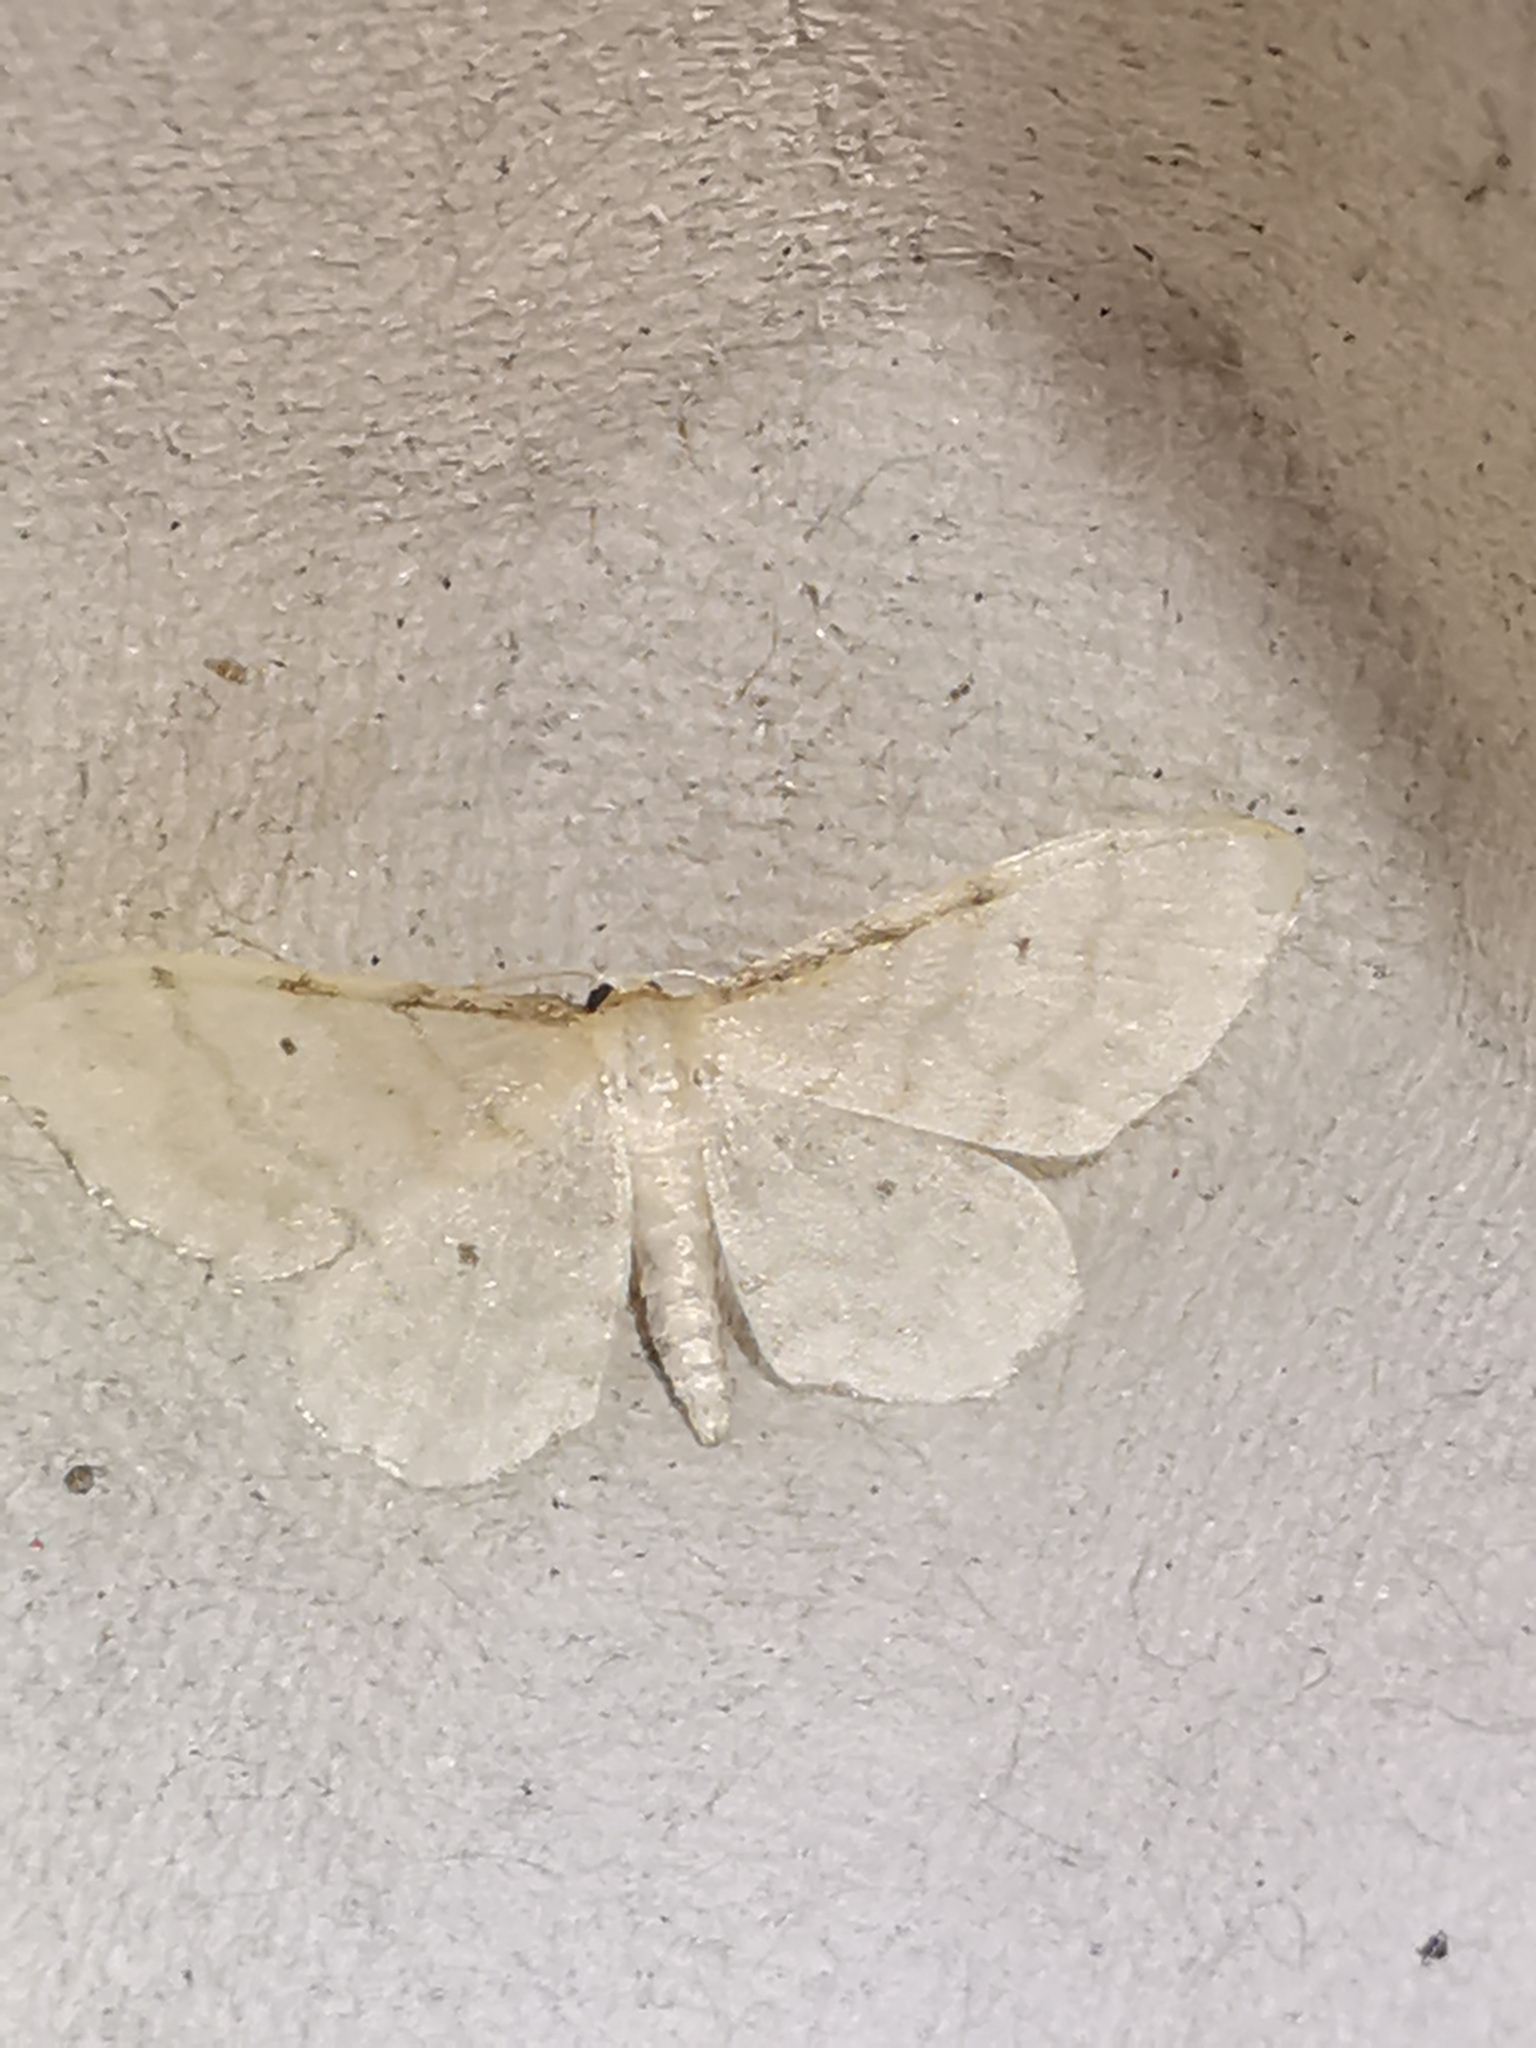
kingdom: Animalia
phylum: Arthropoda
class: Insecta
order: Lepidoptera
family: Geometridae
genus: Idaea
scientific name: Idaea fuscovenosa
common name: Dwarf cream wave
